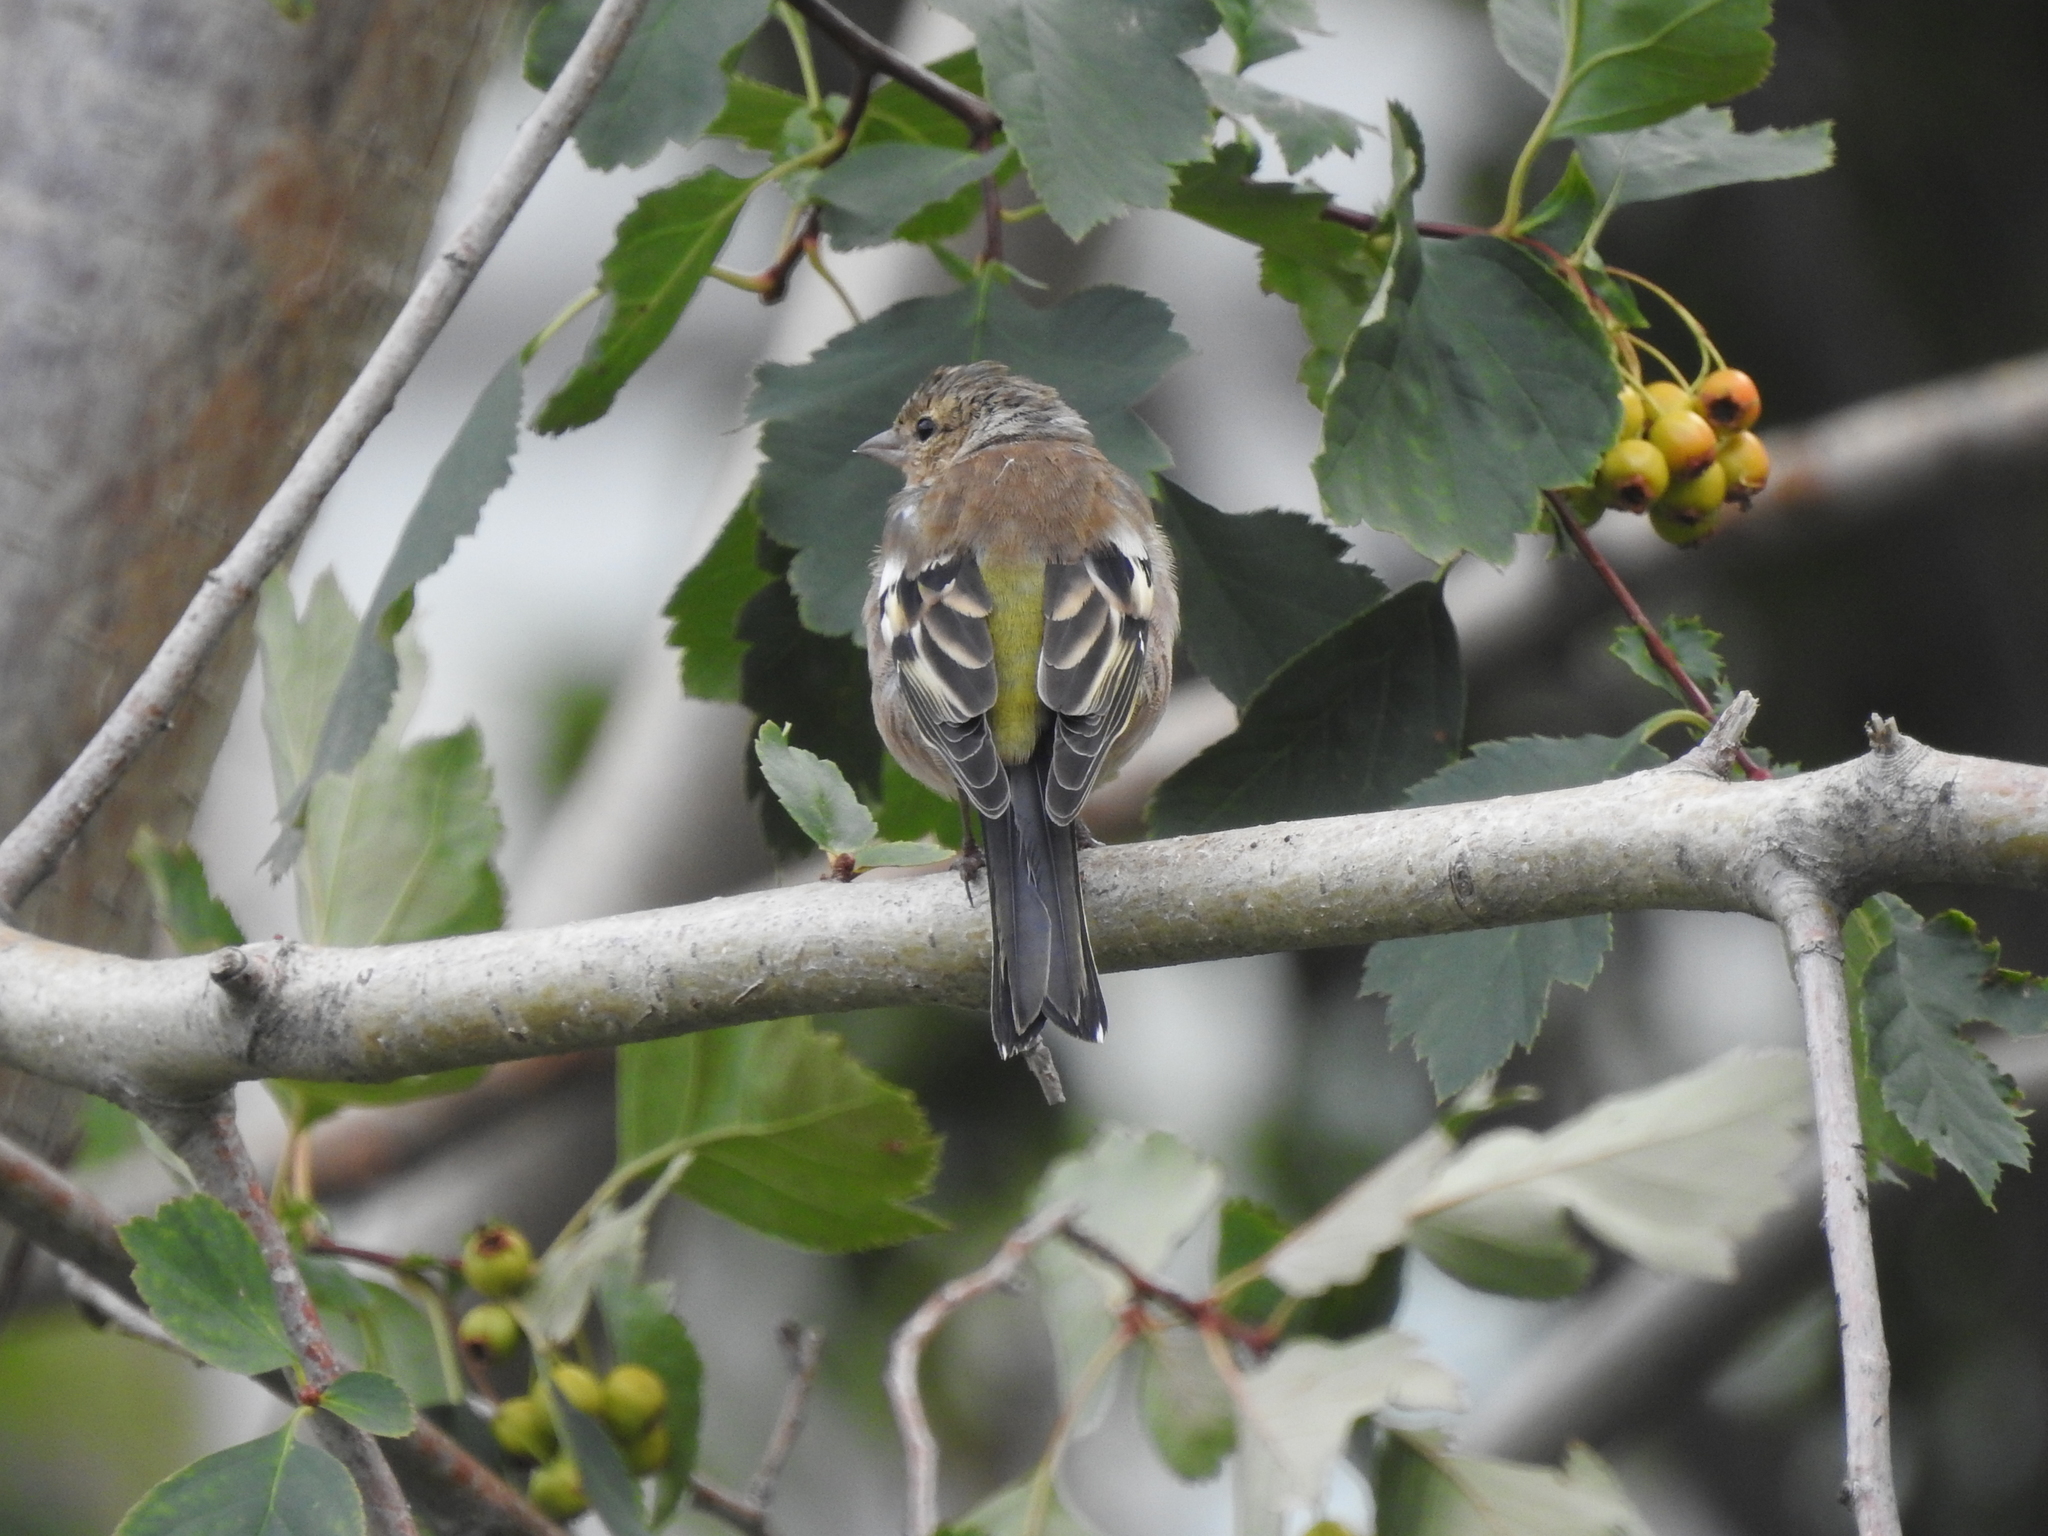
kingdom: Animalia
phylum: Chordata
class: Aves
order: Passeriformes
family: Fringillidae
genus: Fringilla
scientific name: Fringilla coelebs
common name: Common chaffinch
